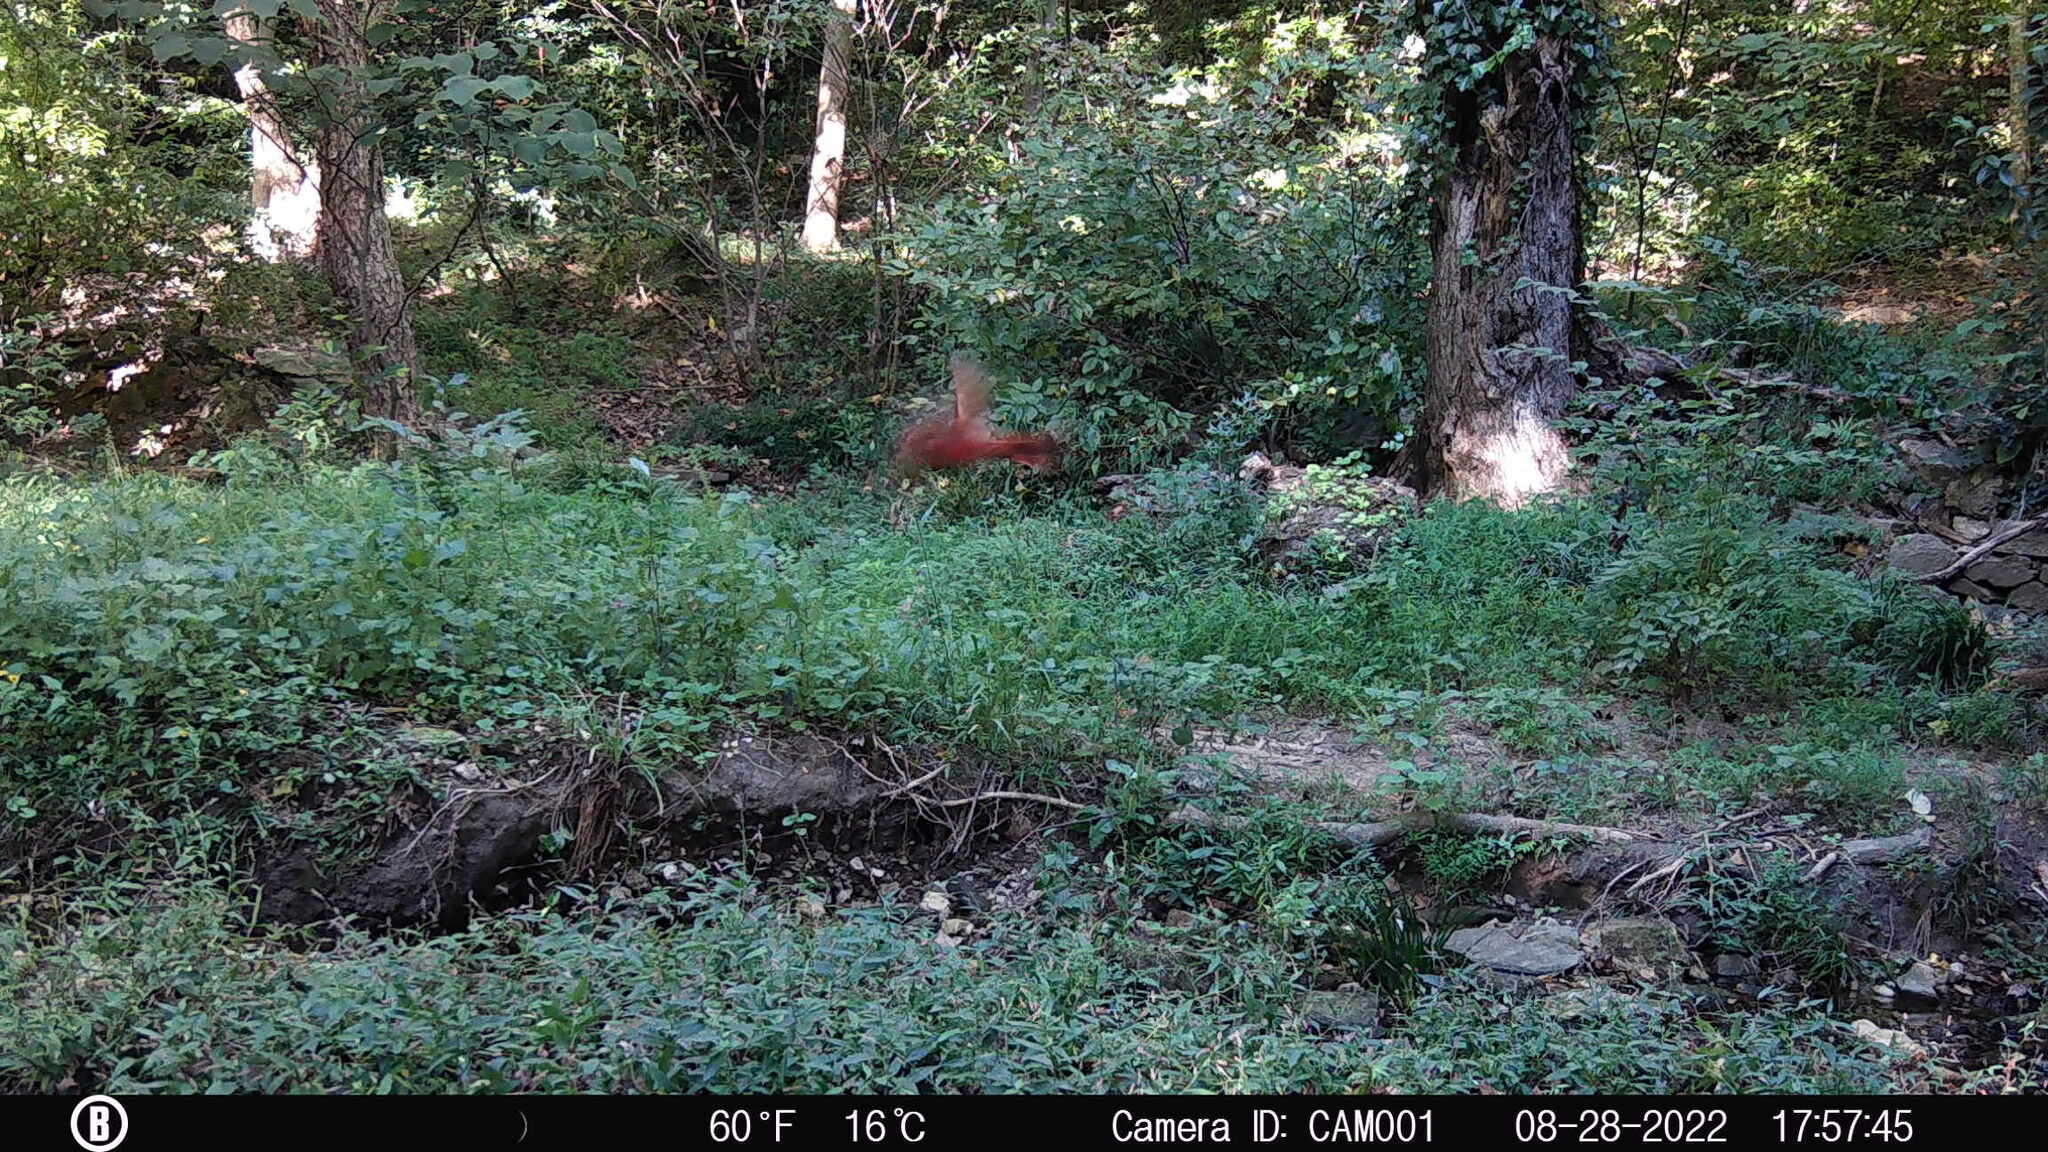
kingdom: Animalia
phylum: Chordata
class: Aves
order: Passeriformes
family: Cardinalidae
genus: Cardinalis
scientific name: Cardinalis cardinalis
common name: Northern cardinal
